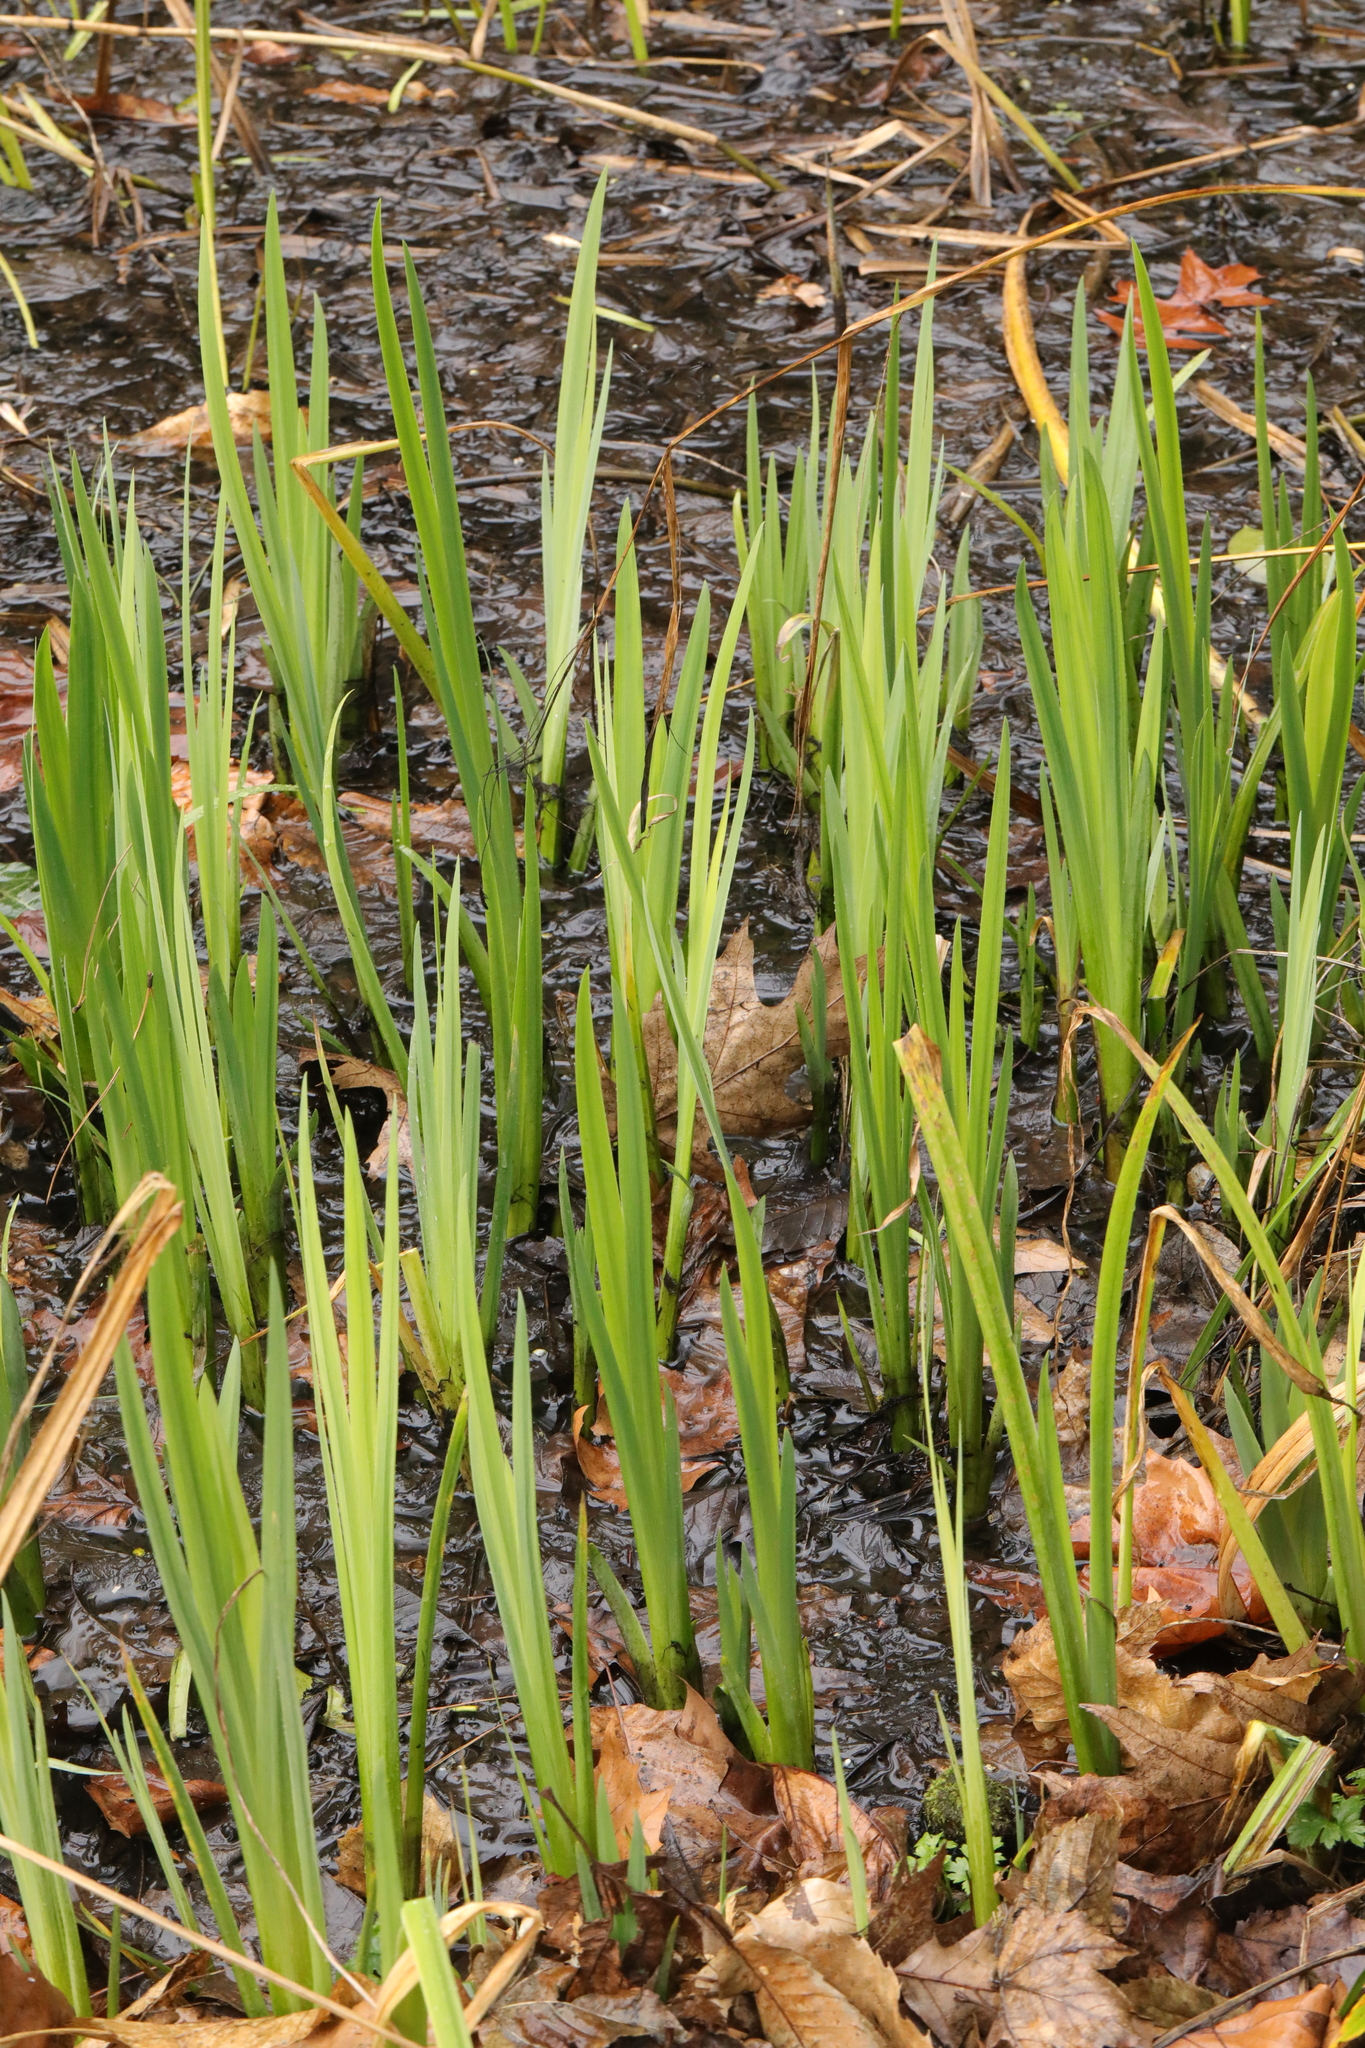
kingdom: Plantae
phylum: Tracheophyta
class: Liliopsida
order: Asparagales
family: Iridaceae
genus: Iris
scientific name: Iris pseudacorus
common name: Yellow flag
